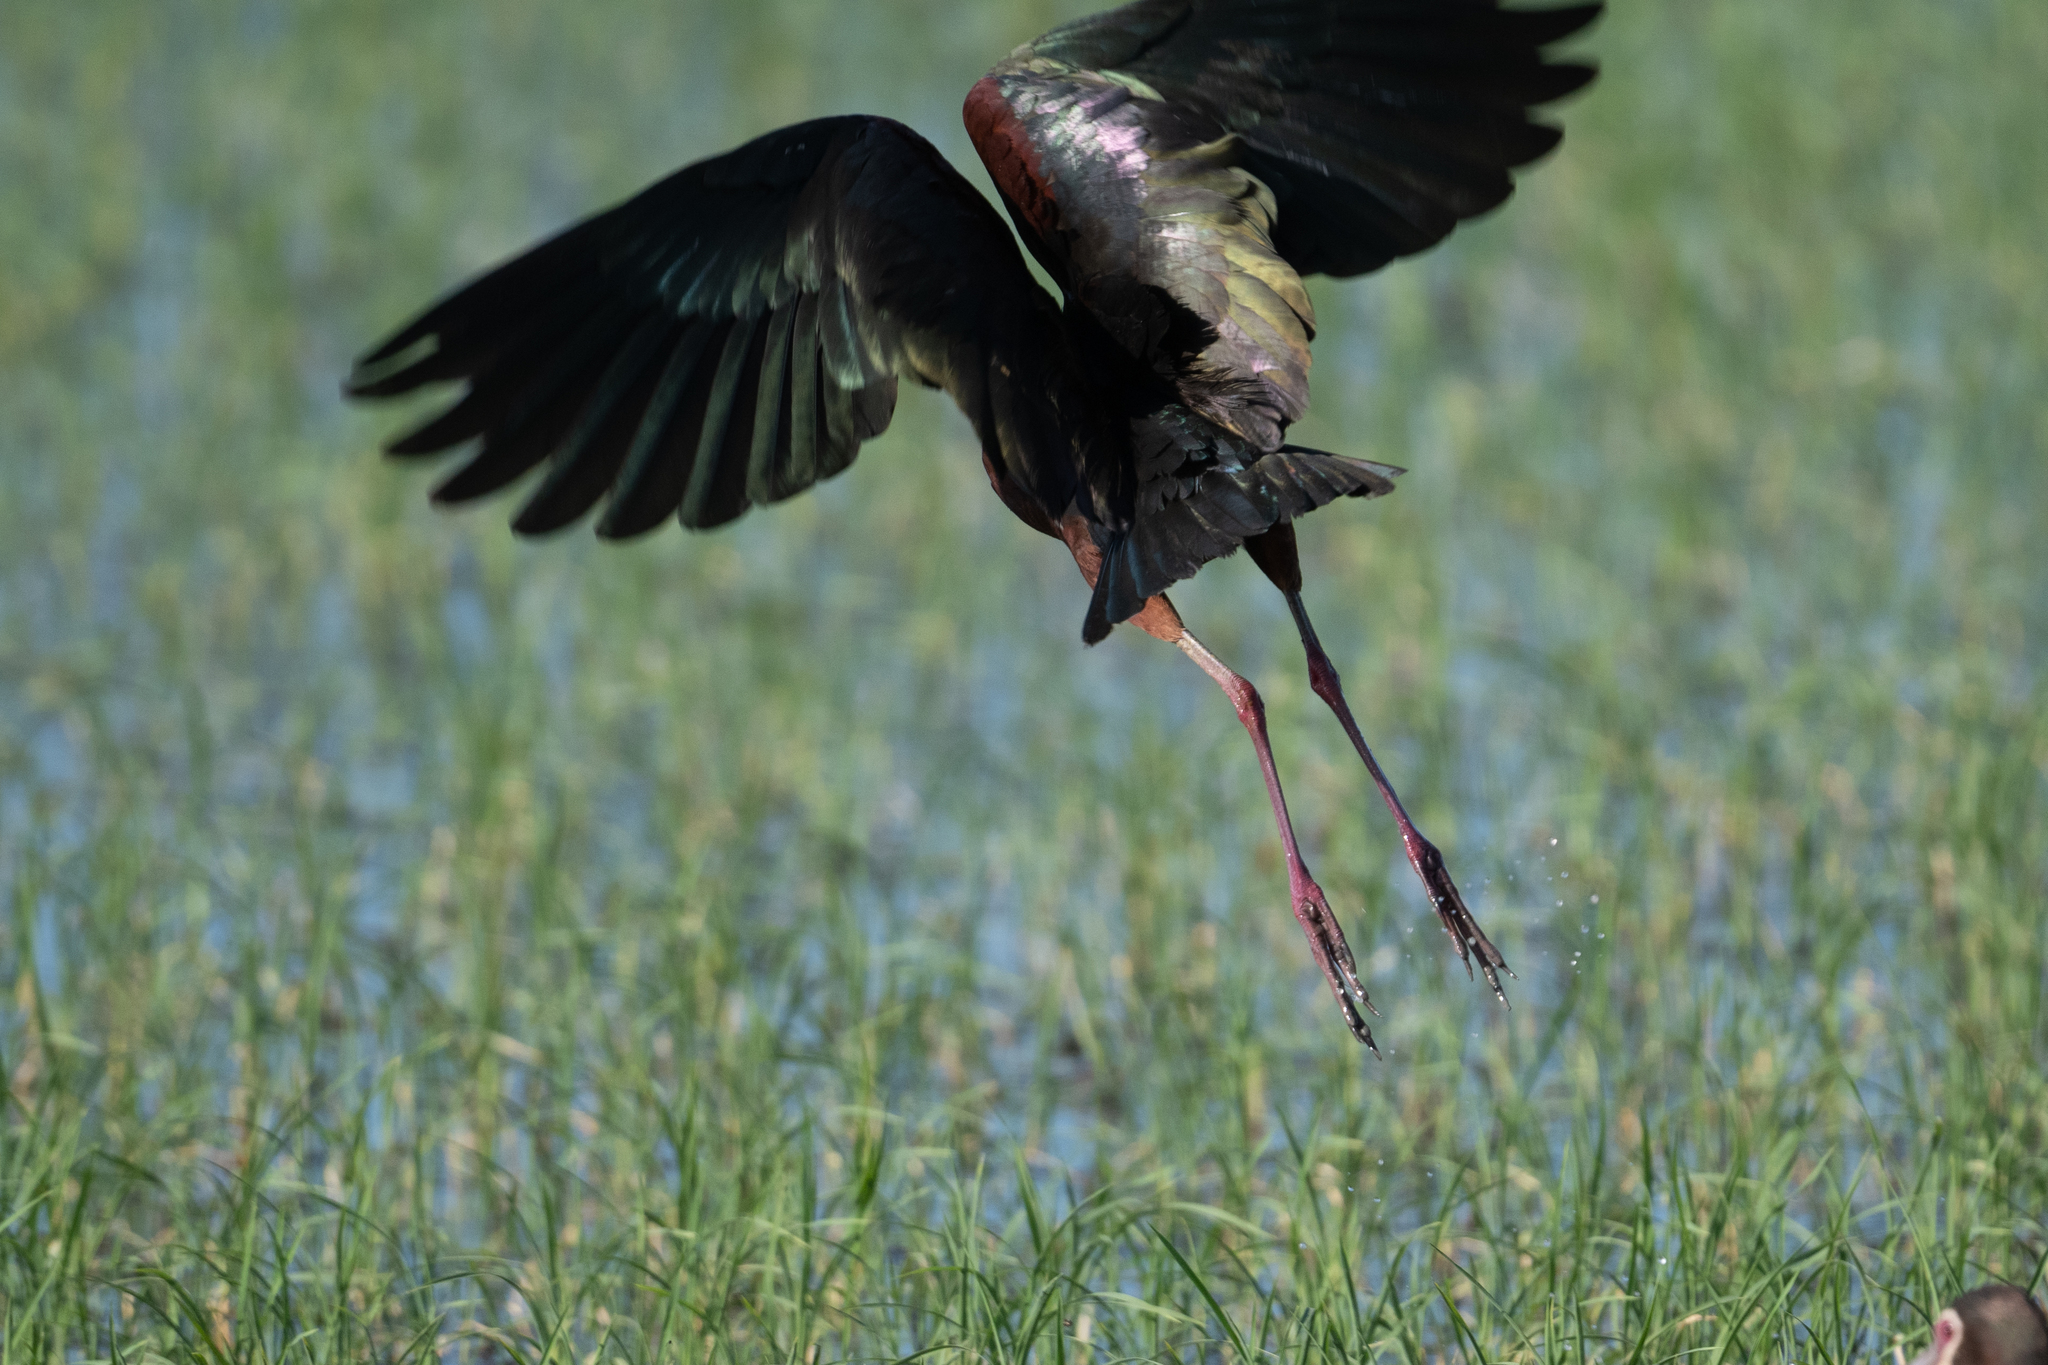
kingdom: Animalia
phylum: Chordata
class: Aves
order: Pelecaniformes
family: Threskiornithidae
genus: Plegadis
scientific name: Plegadis chihi
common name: White-faced ibis
